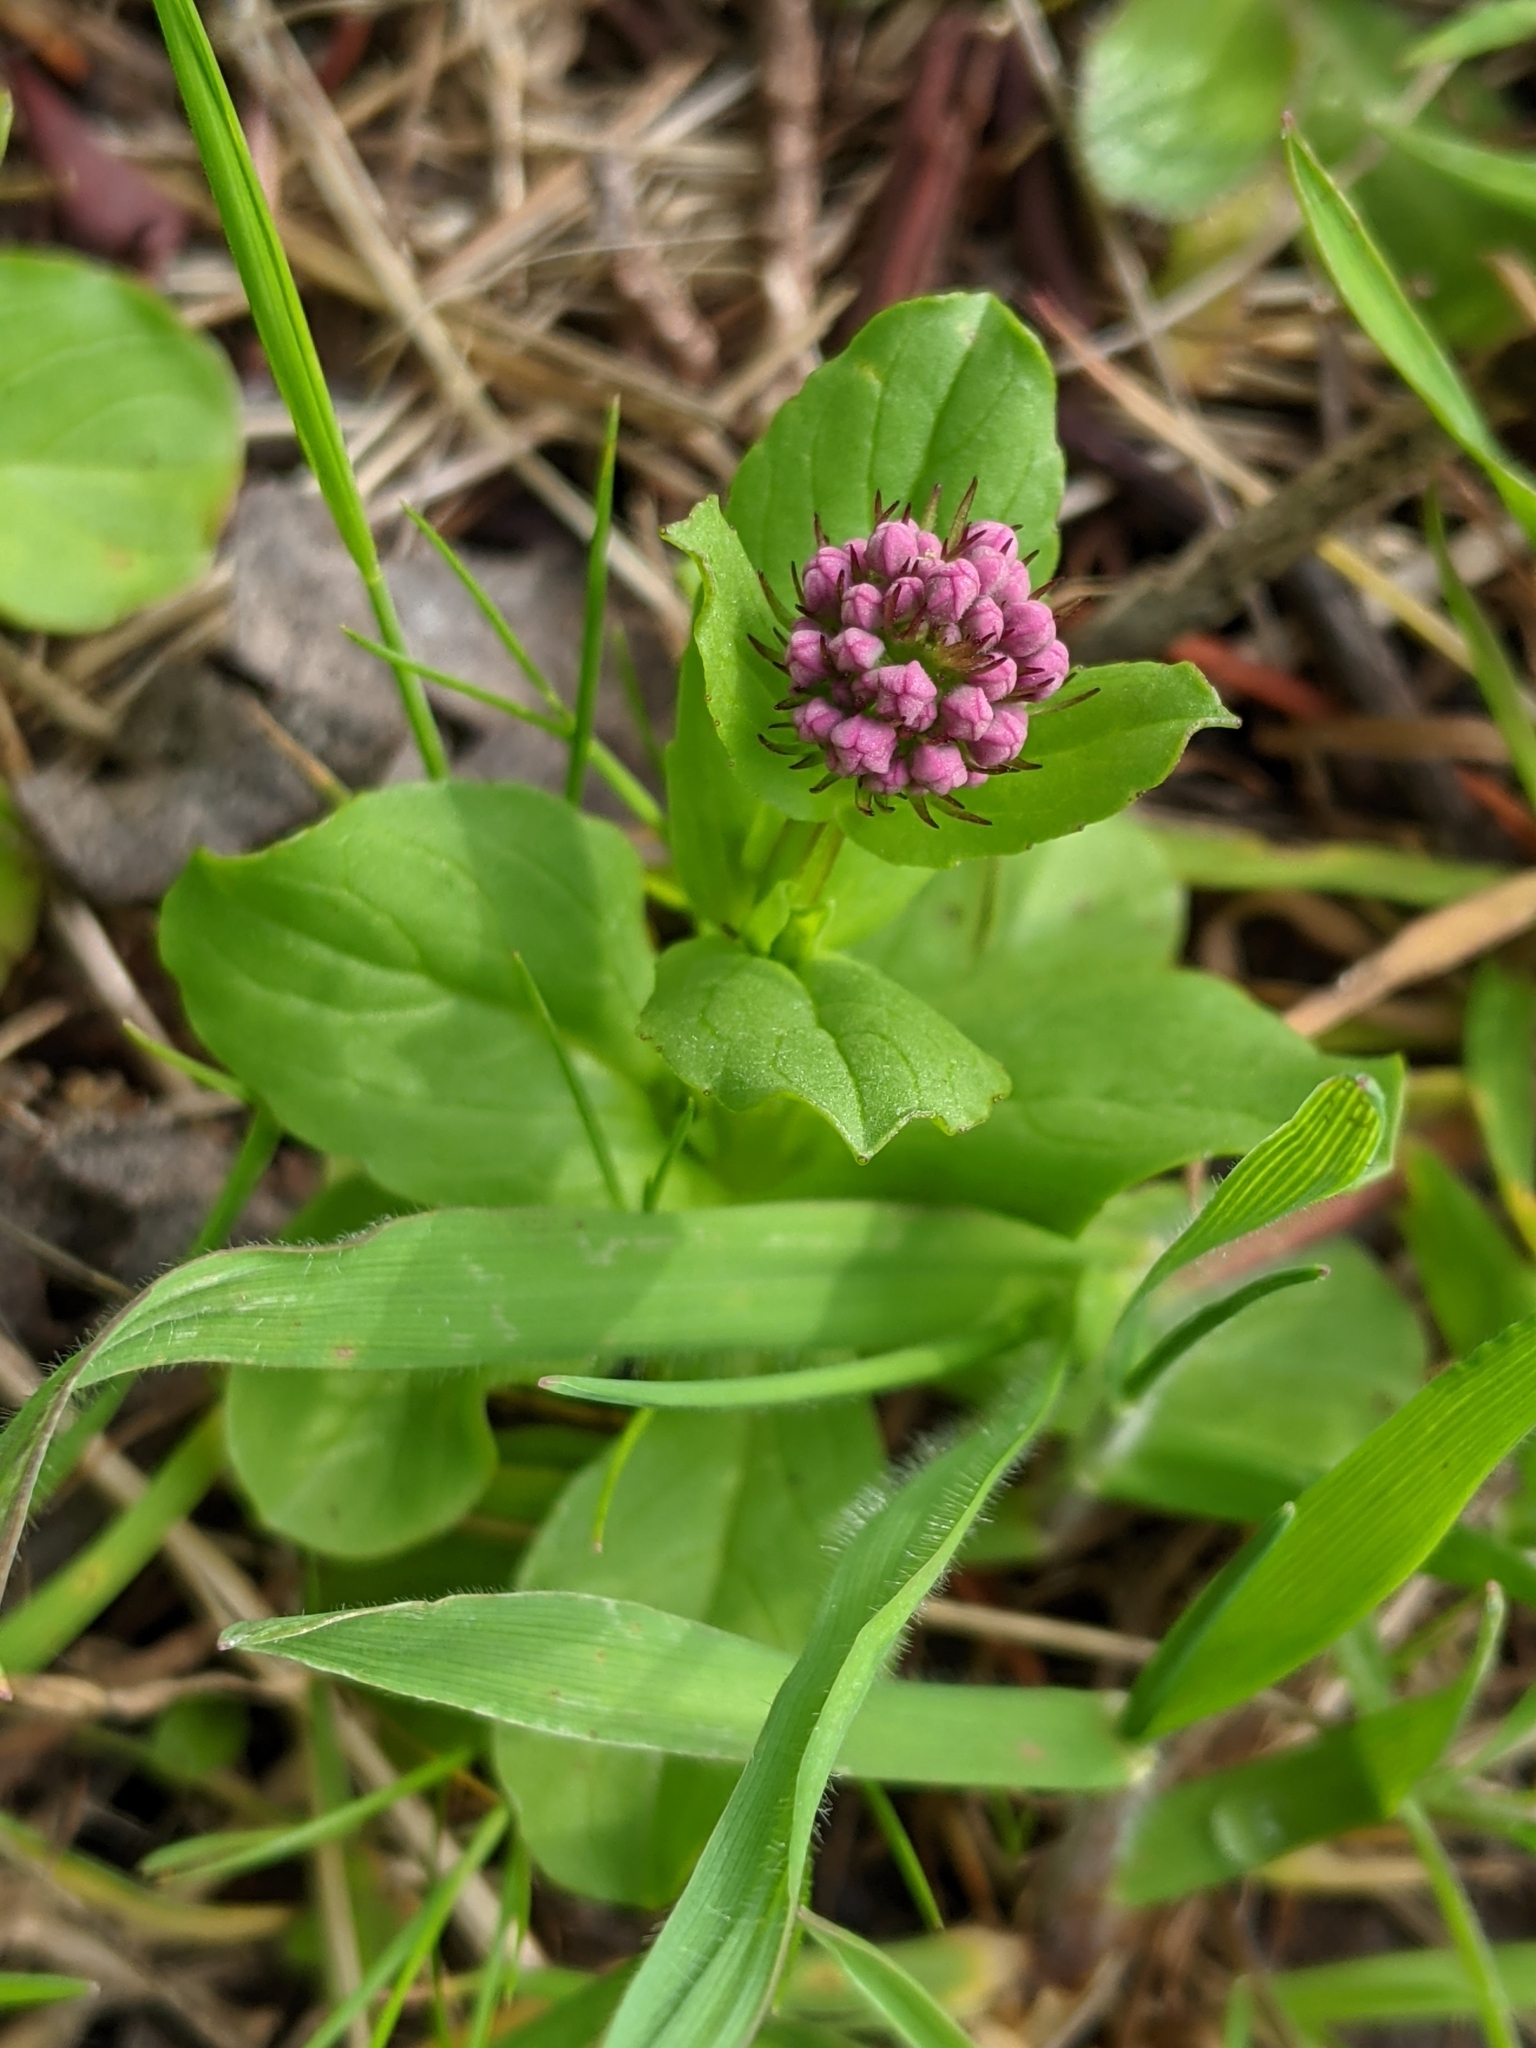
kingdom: Plantae
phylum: Tracheophyta
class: Magnoliopsida
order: Dipsacales
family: Caprifoliaceae
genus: Plectritis
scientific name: Plectritis congesta
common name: Pink plectritis
